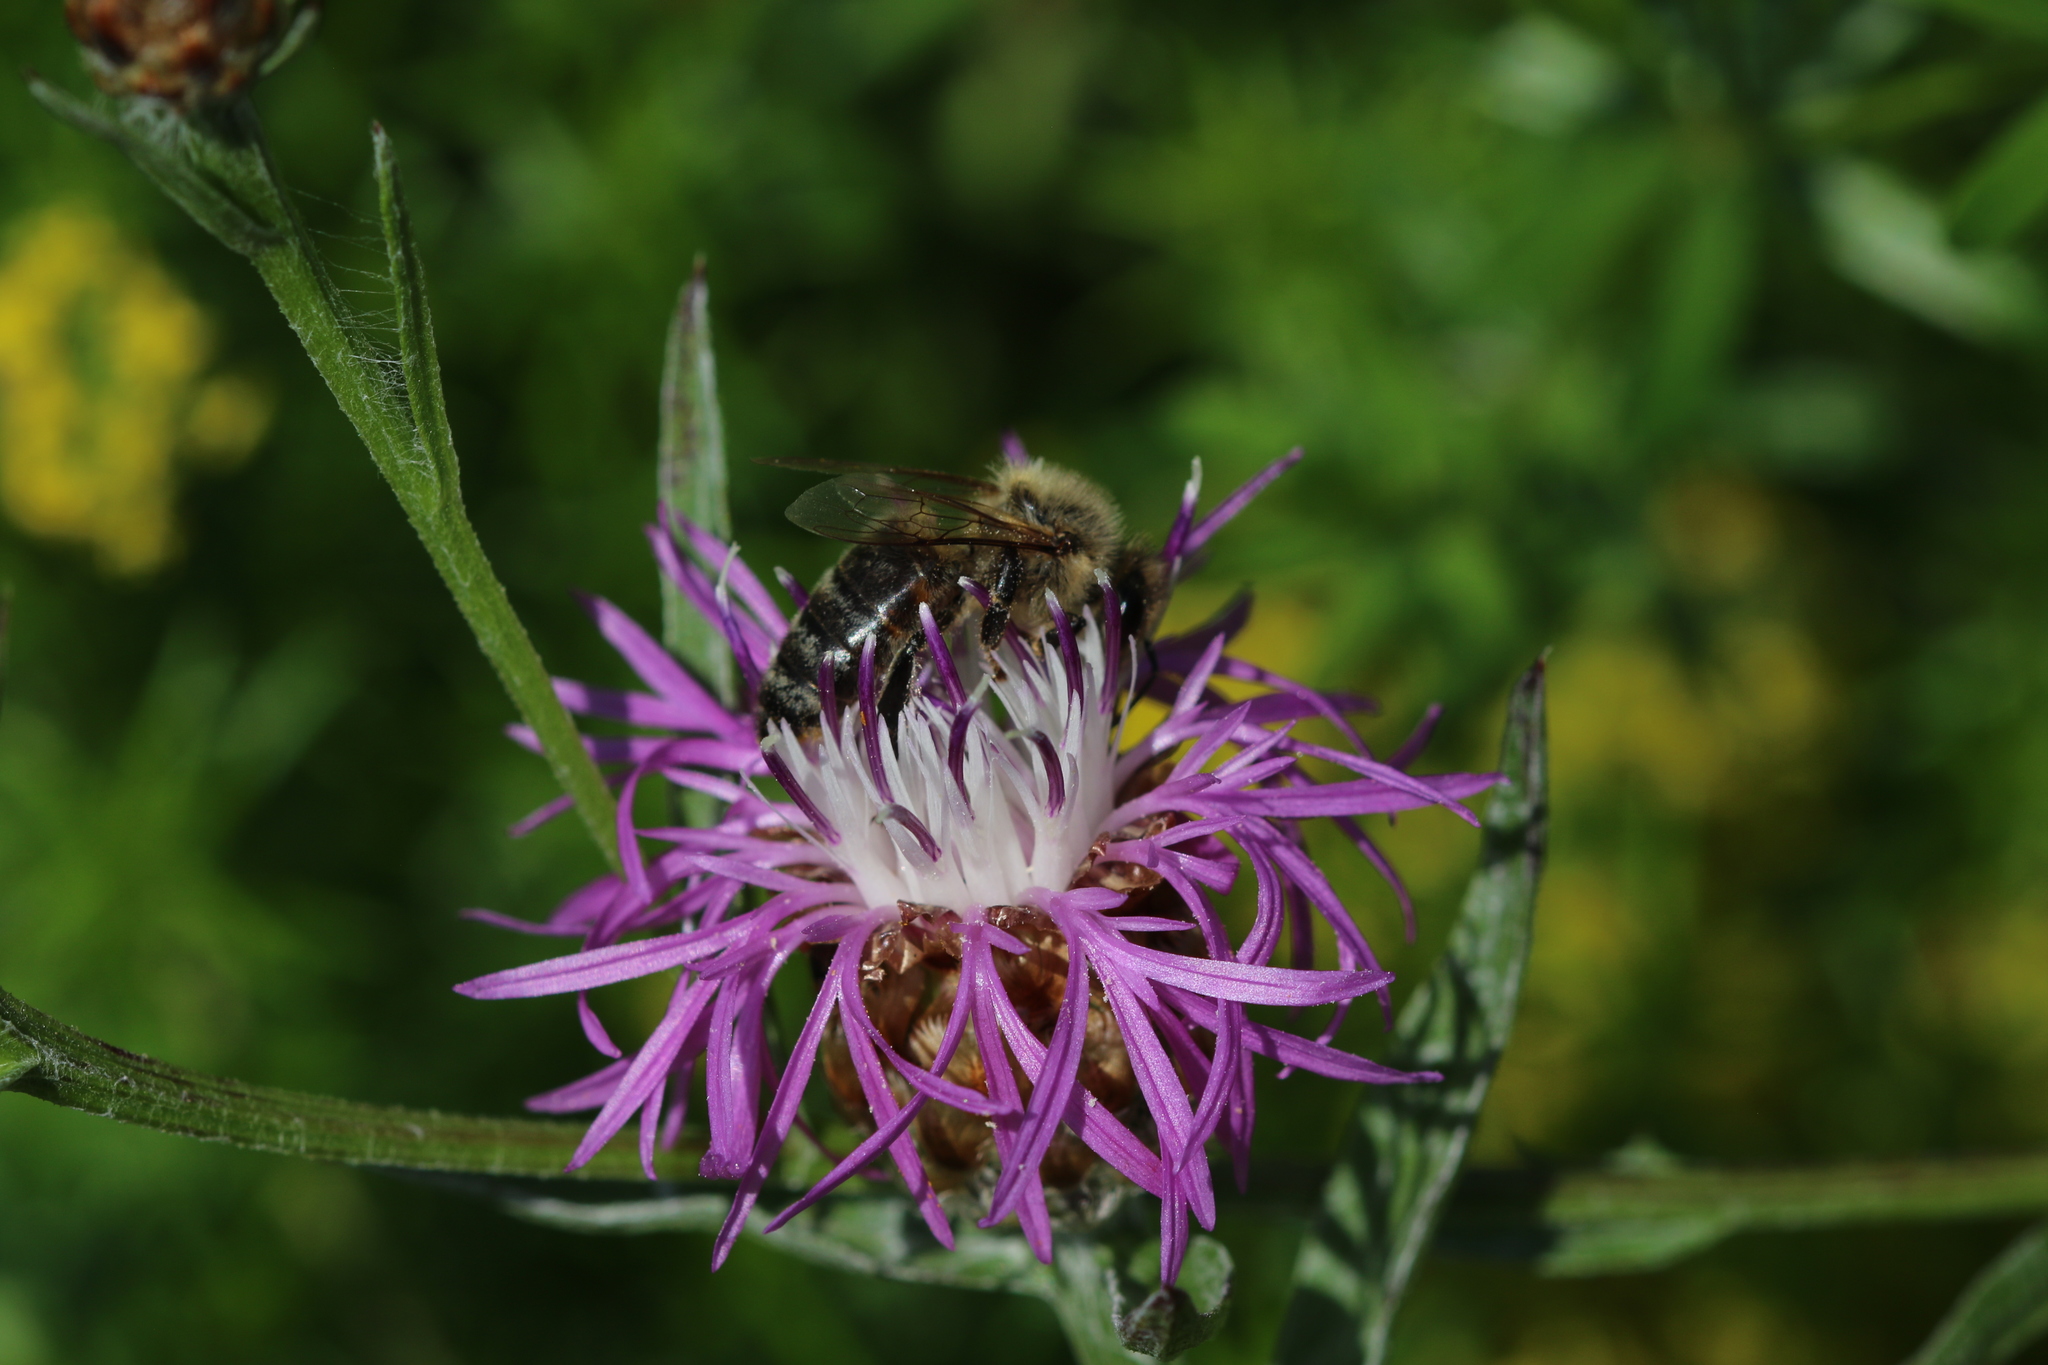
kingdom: Animalia
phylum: Arthropoda
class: Insecta
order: Hymenoptera
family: Apidae
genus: Apis
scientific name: Apis mellifera
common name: Honey bee
